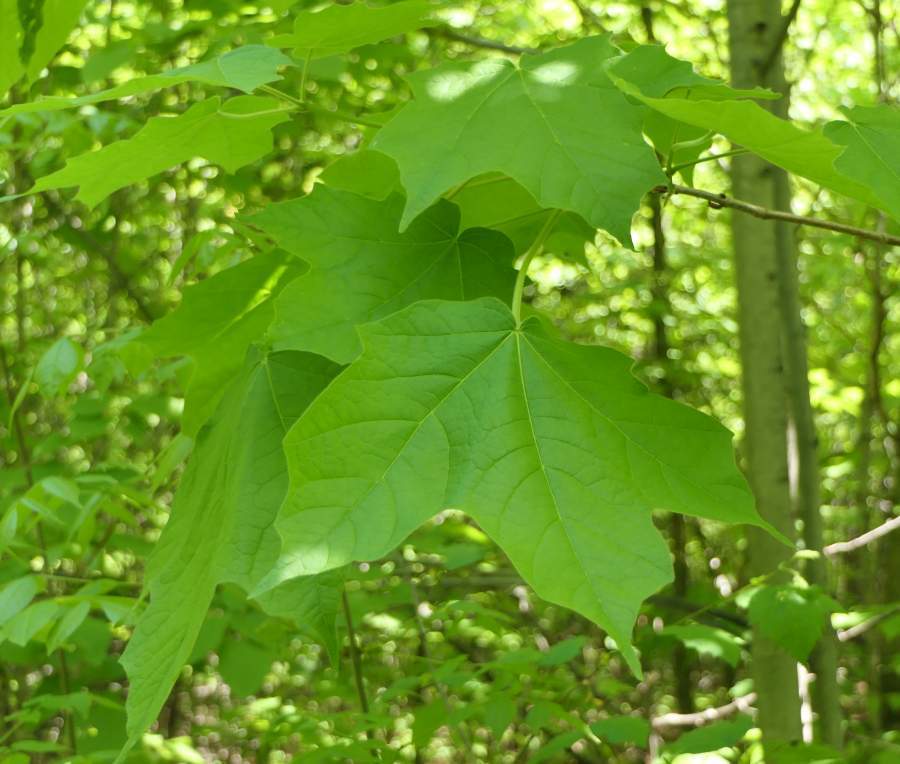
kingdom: Plantae
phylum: Tracheophyta
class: Magnoliopsida
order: Sapindales
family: Sapindaceae
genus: Acer
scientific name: Acer nigrum
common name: Black maple
